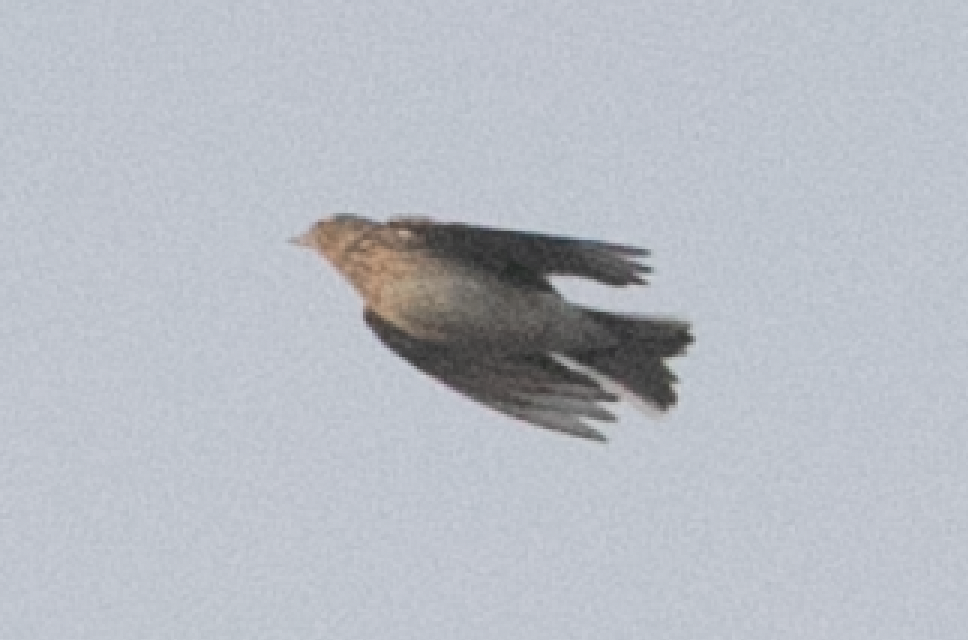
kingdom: Animalia
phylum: Chordata
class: Aves
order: Passeriformes
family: Alaudidae
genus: Alauda
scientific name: Alauda arvensis
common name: Eurasian skylark
